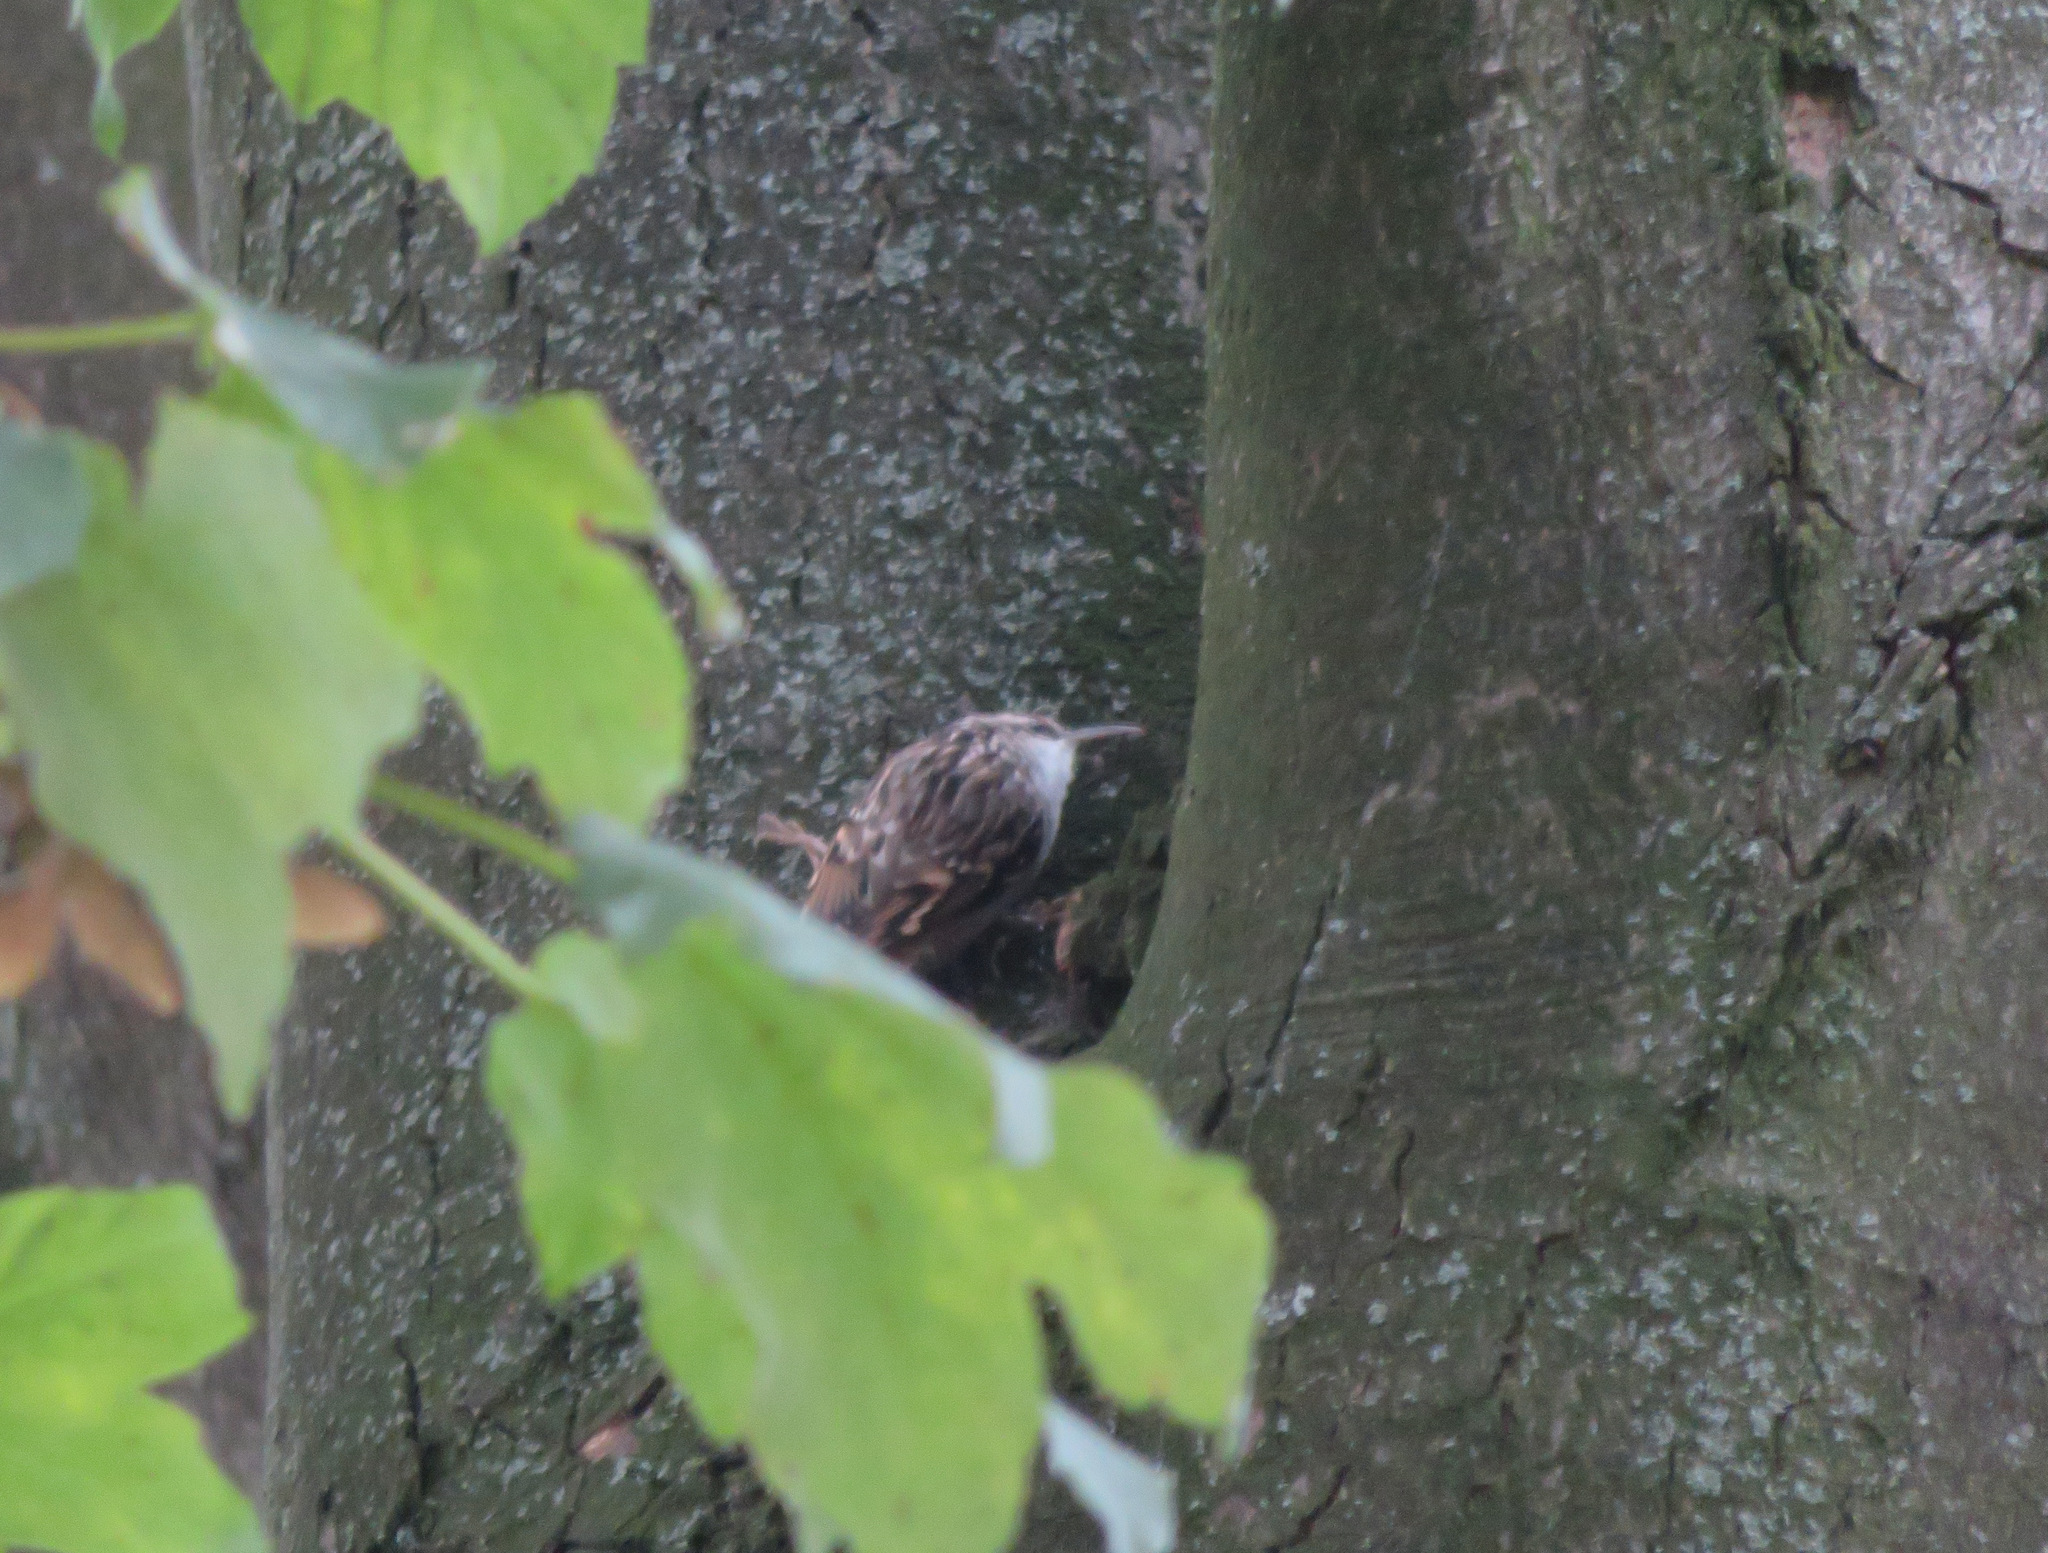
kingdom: Animalia
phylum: Chordata
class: Aves
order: Passeriformes
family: Certhiidae
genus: Certhia
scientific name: Certhia brachydactyla
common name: Short-toed treecreeper
